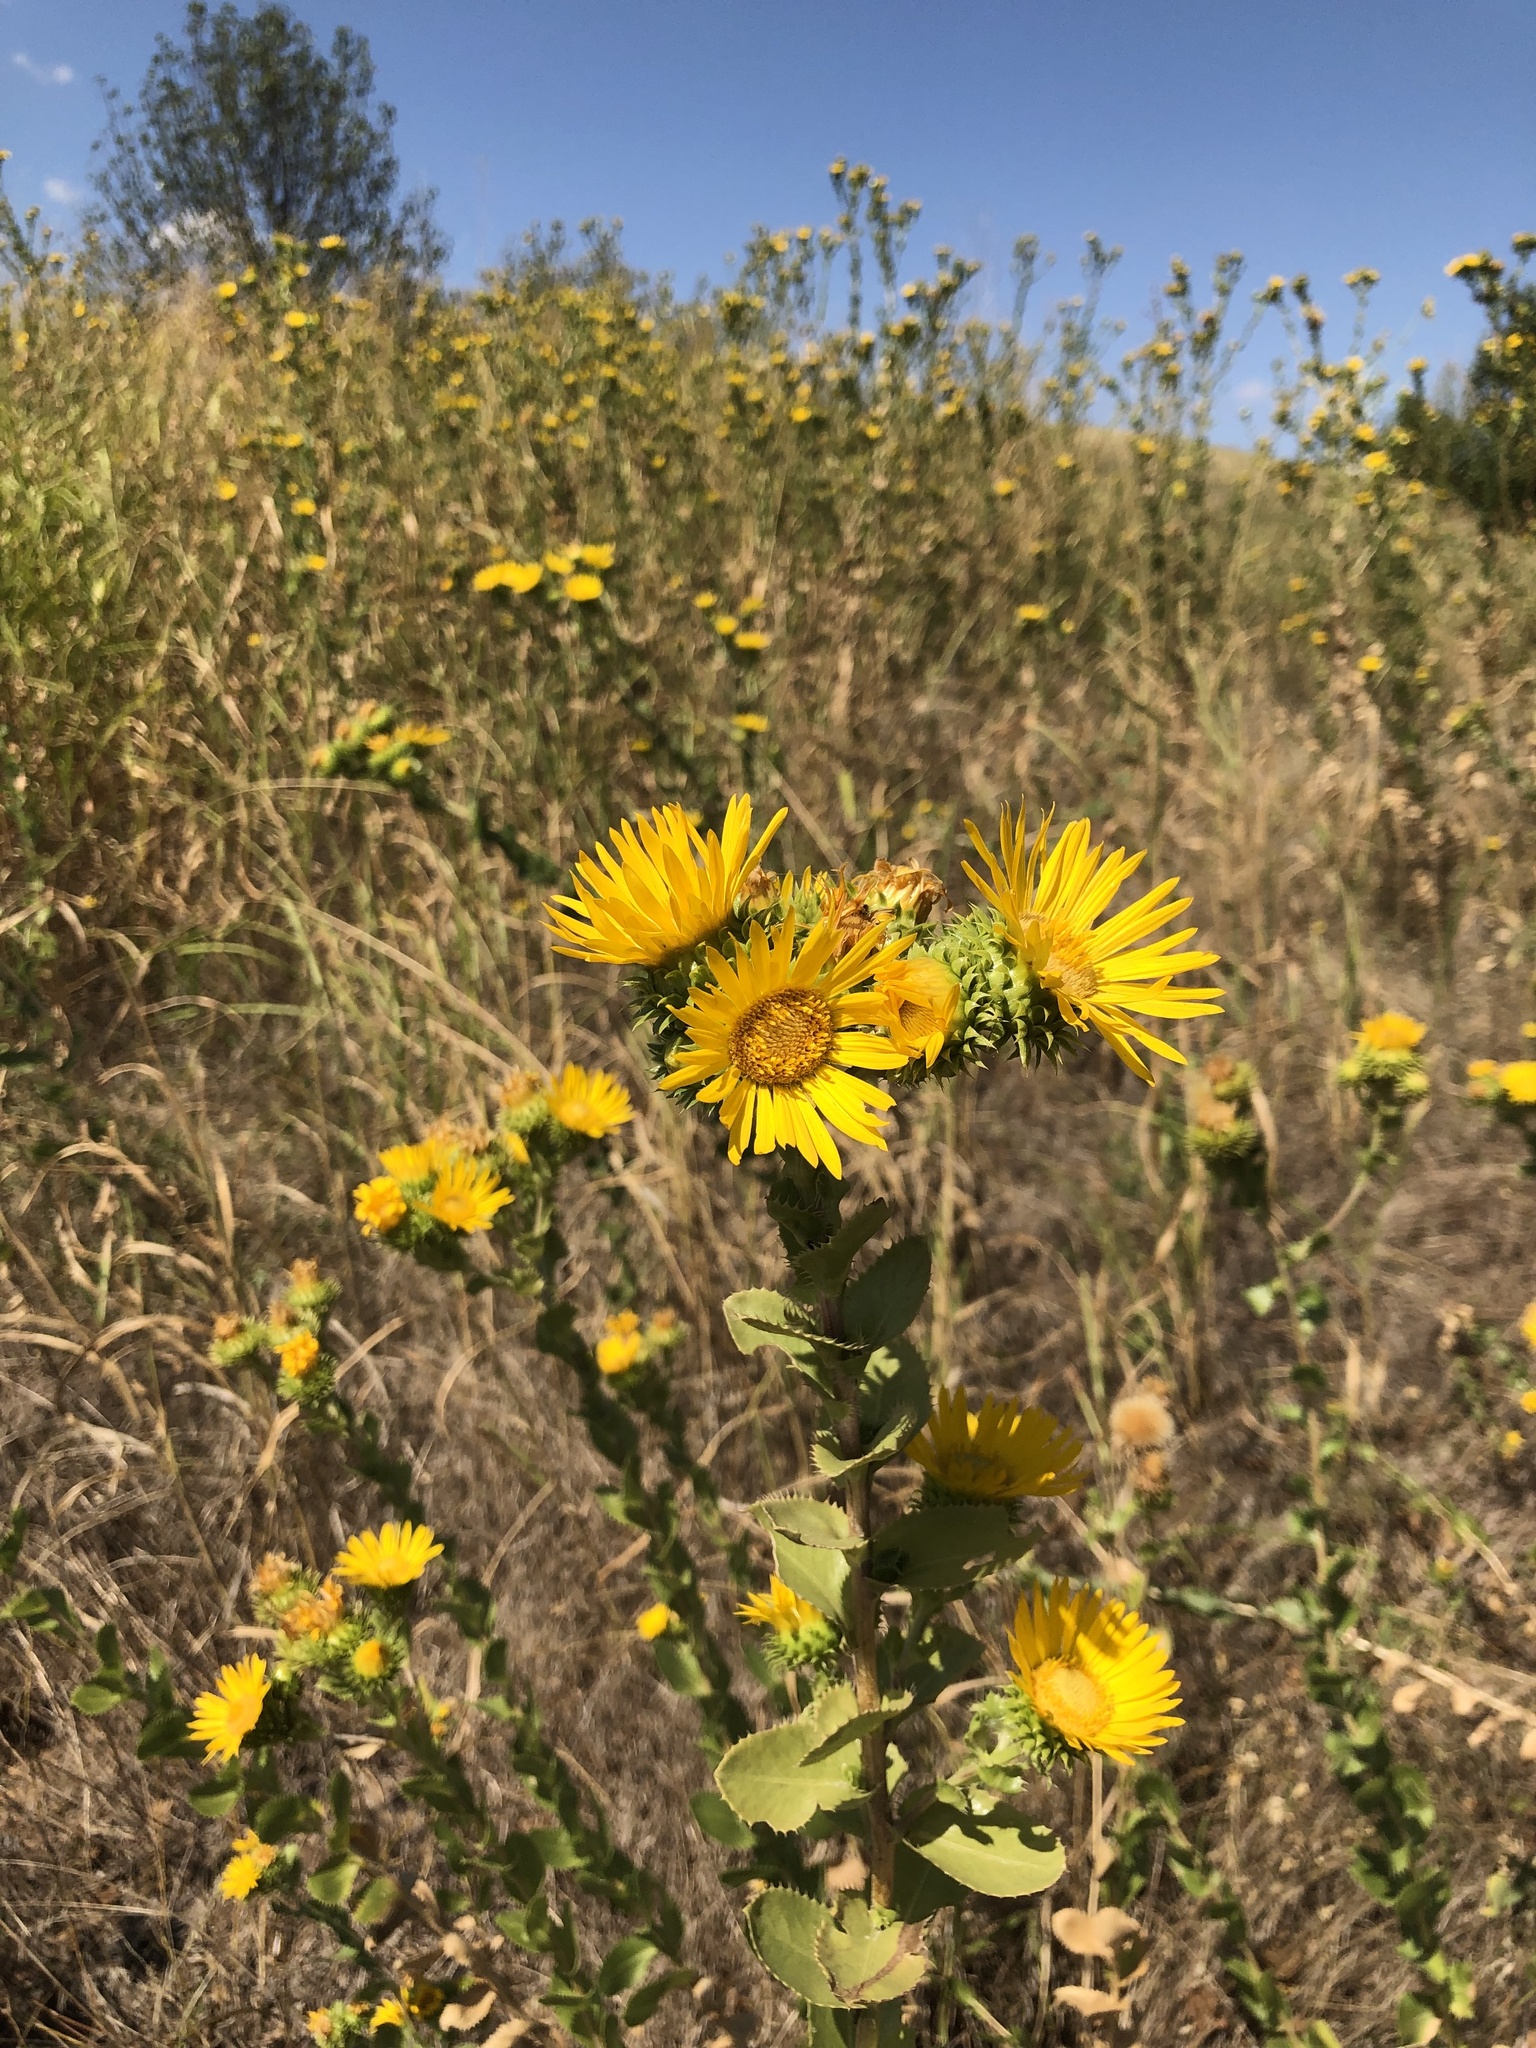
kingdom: Plantae
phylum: Tracheophyta
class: Magnoliopsida
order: Asterales
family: Asteraceae
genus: Grindelia
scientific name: Grindelia ciliata
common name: Goldenweed
